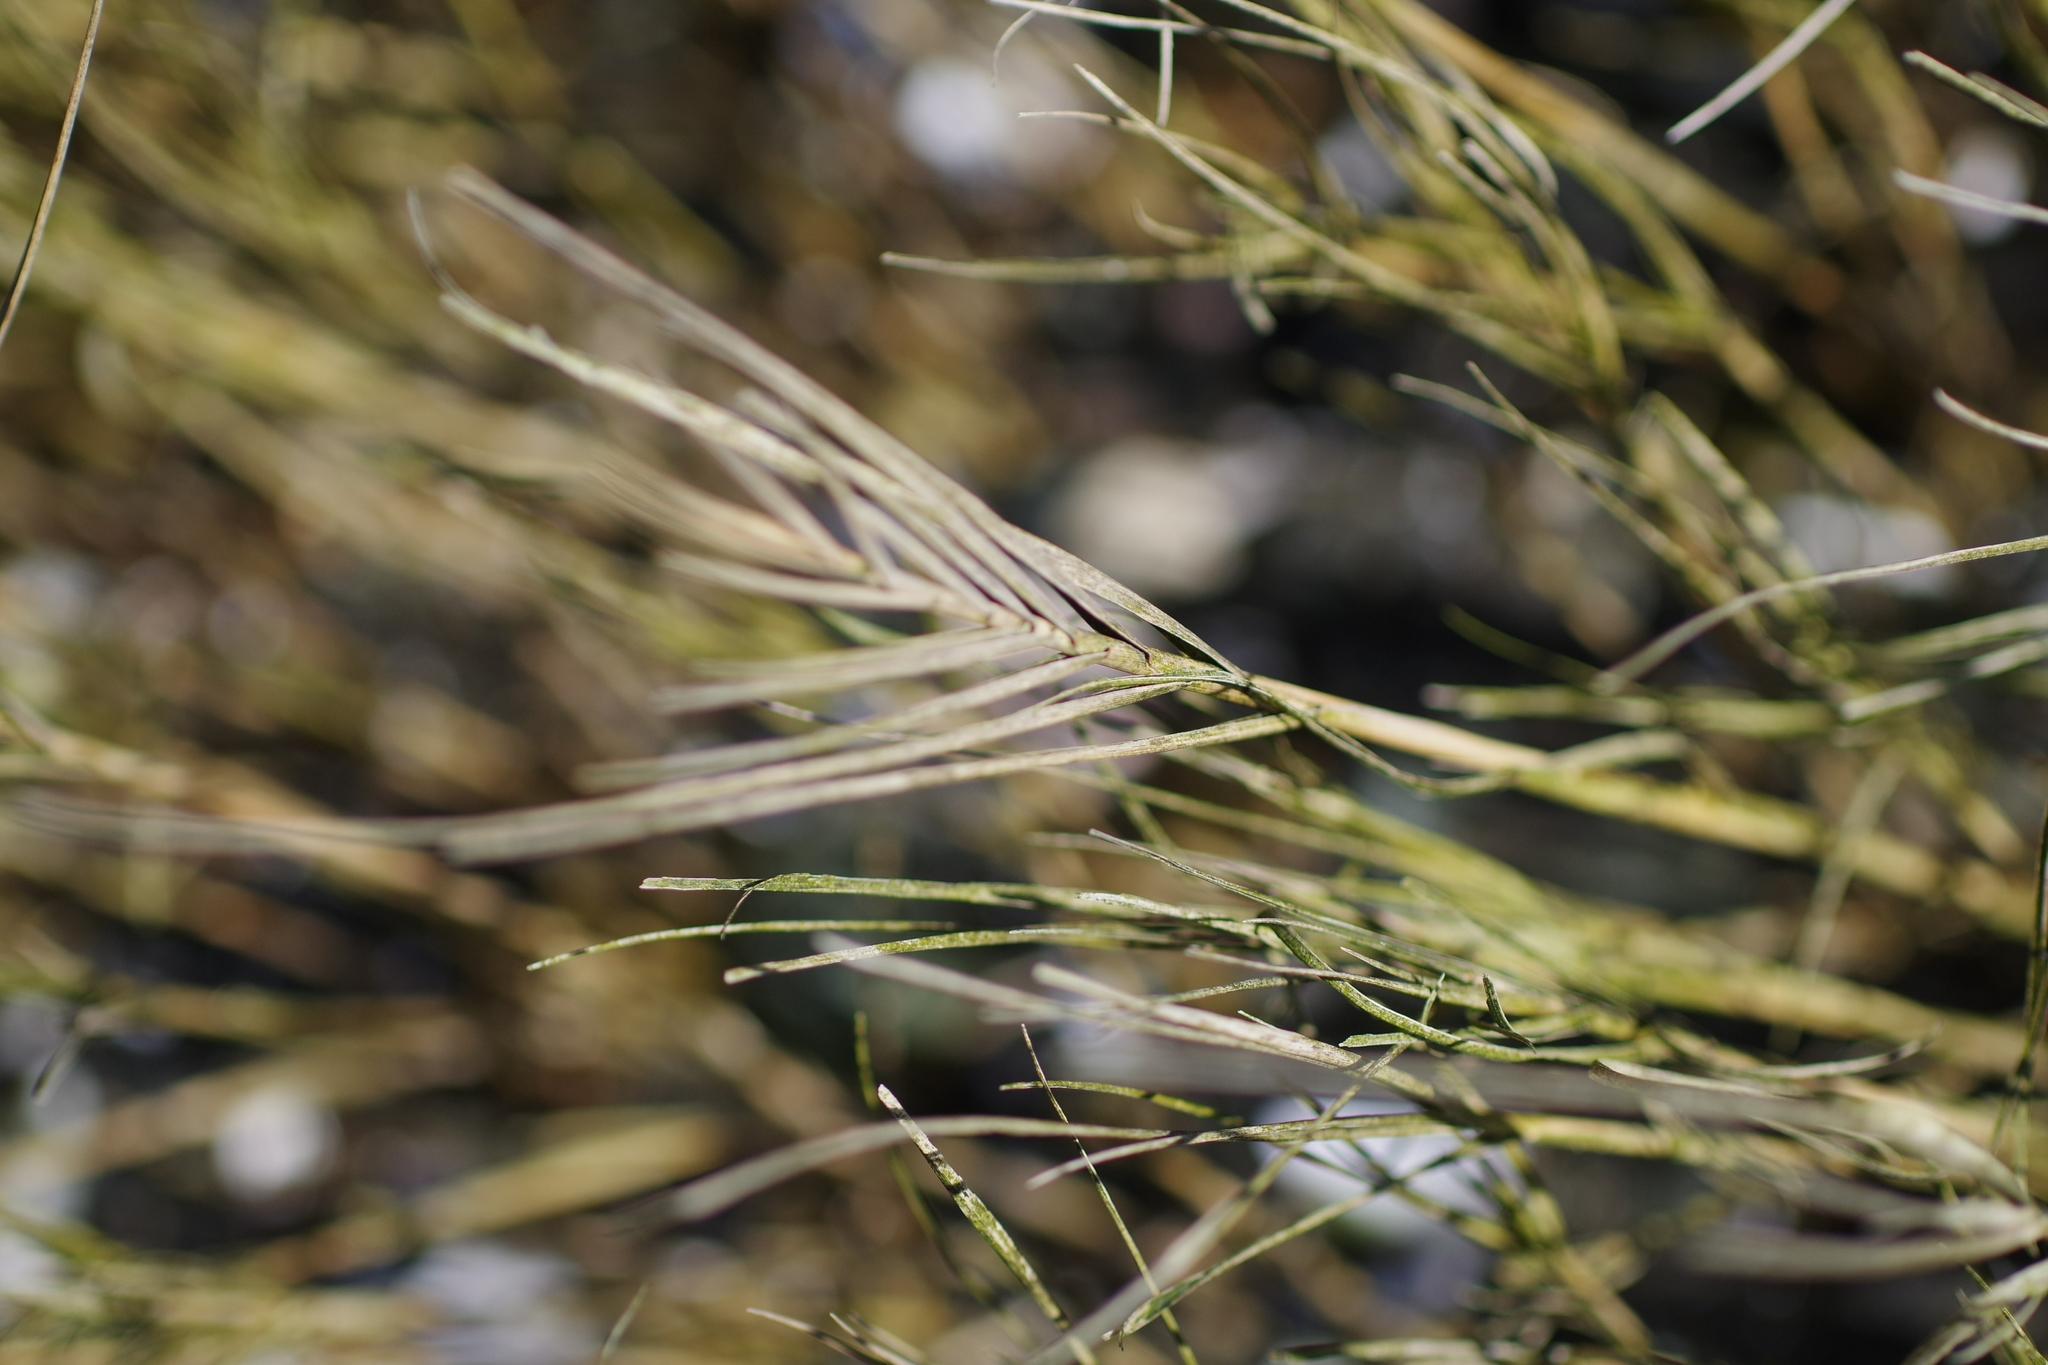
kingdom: Plantae
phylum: Tracheophyta
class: Liliopsida
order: Poales
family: Poaceae
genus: Distichlis
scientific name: Distichlis spicata
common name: Saltgrass
